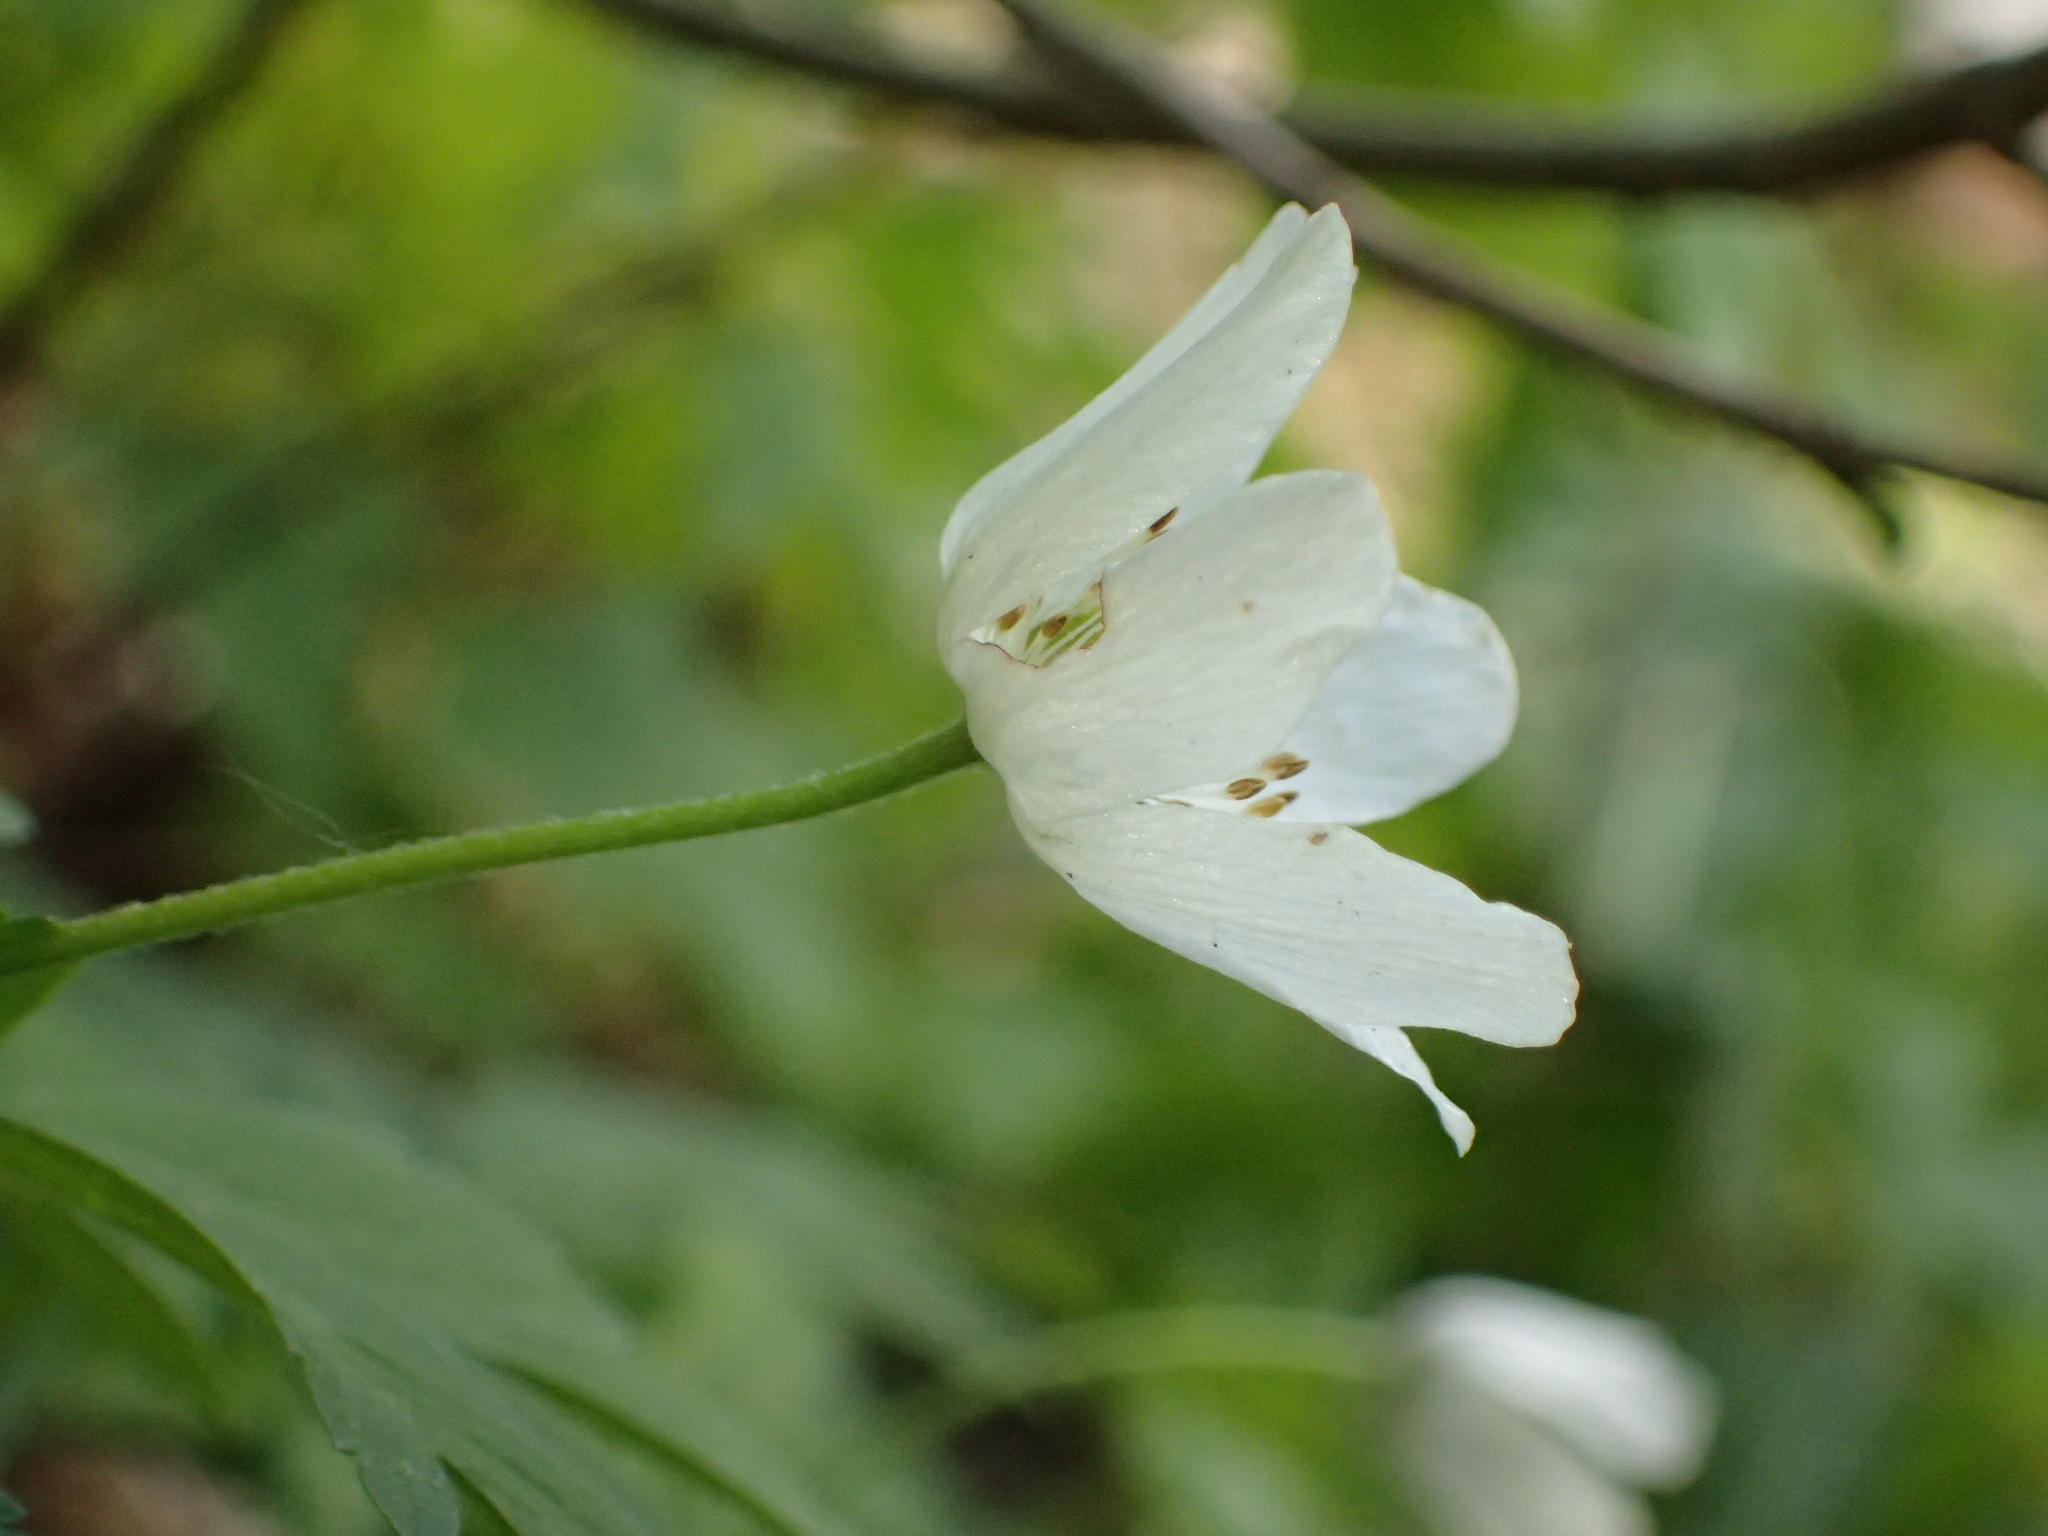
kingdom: Plantae
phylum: Tracheophyta
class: Magnoliopsida
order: Ranunculales
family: Ranunculaceae
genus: Anemone
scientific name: Anemone nemorosa
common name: Wood anemone
